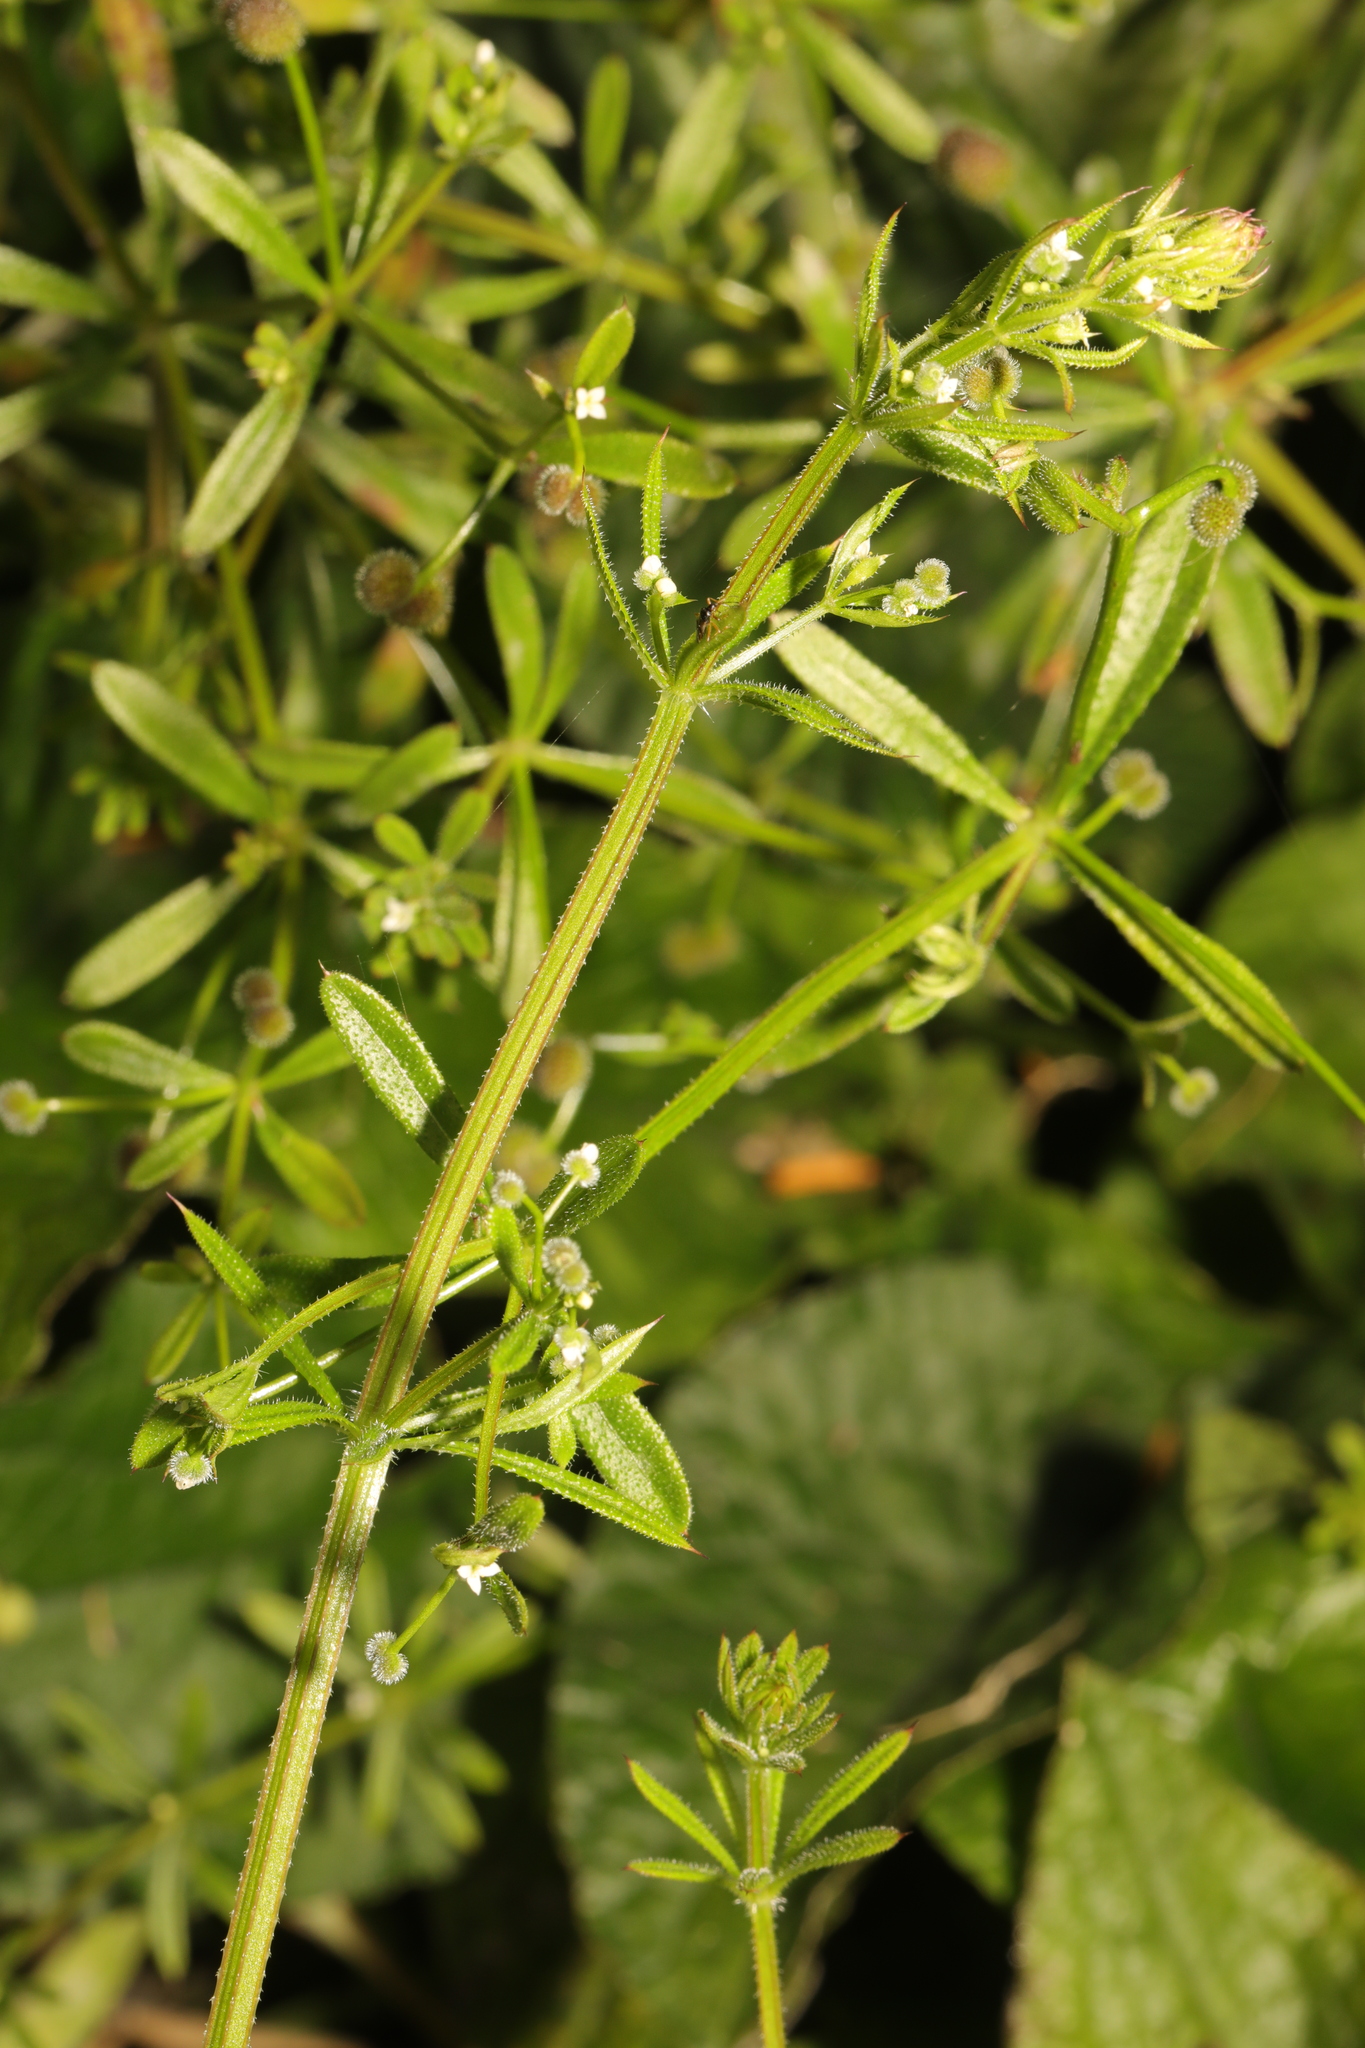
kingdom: Plantae
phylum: Tracheophyta
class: Magnoliopsida
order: Gentianales
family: Rubiaceae
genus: Galium
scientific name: Galium aparine
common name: Cleavers
